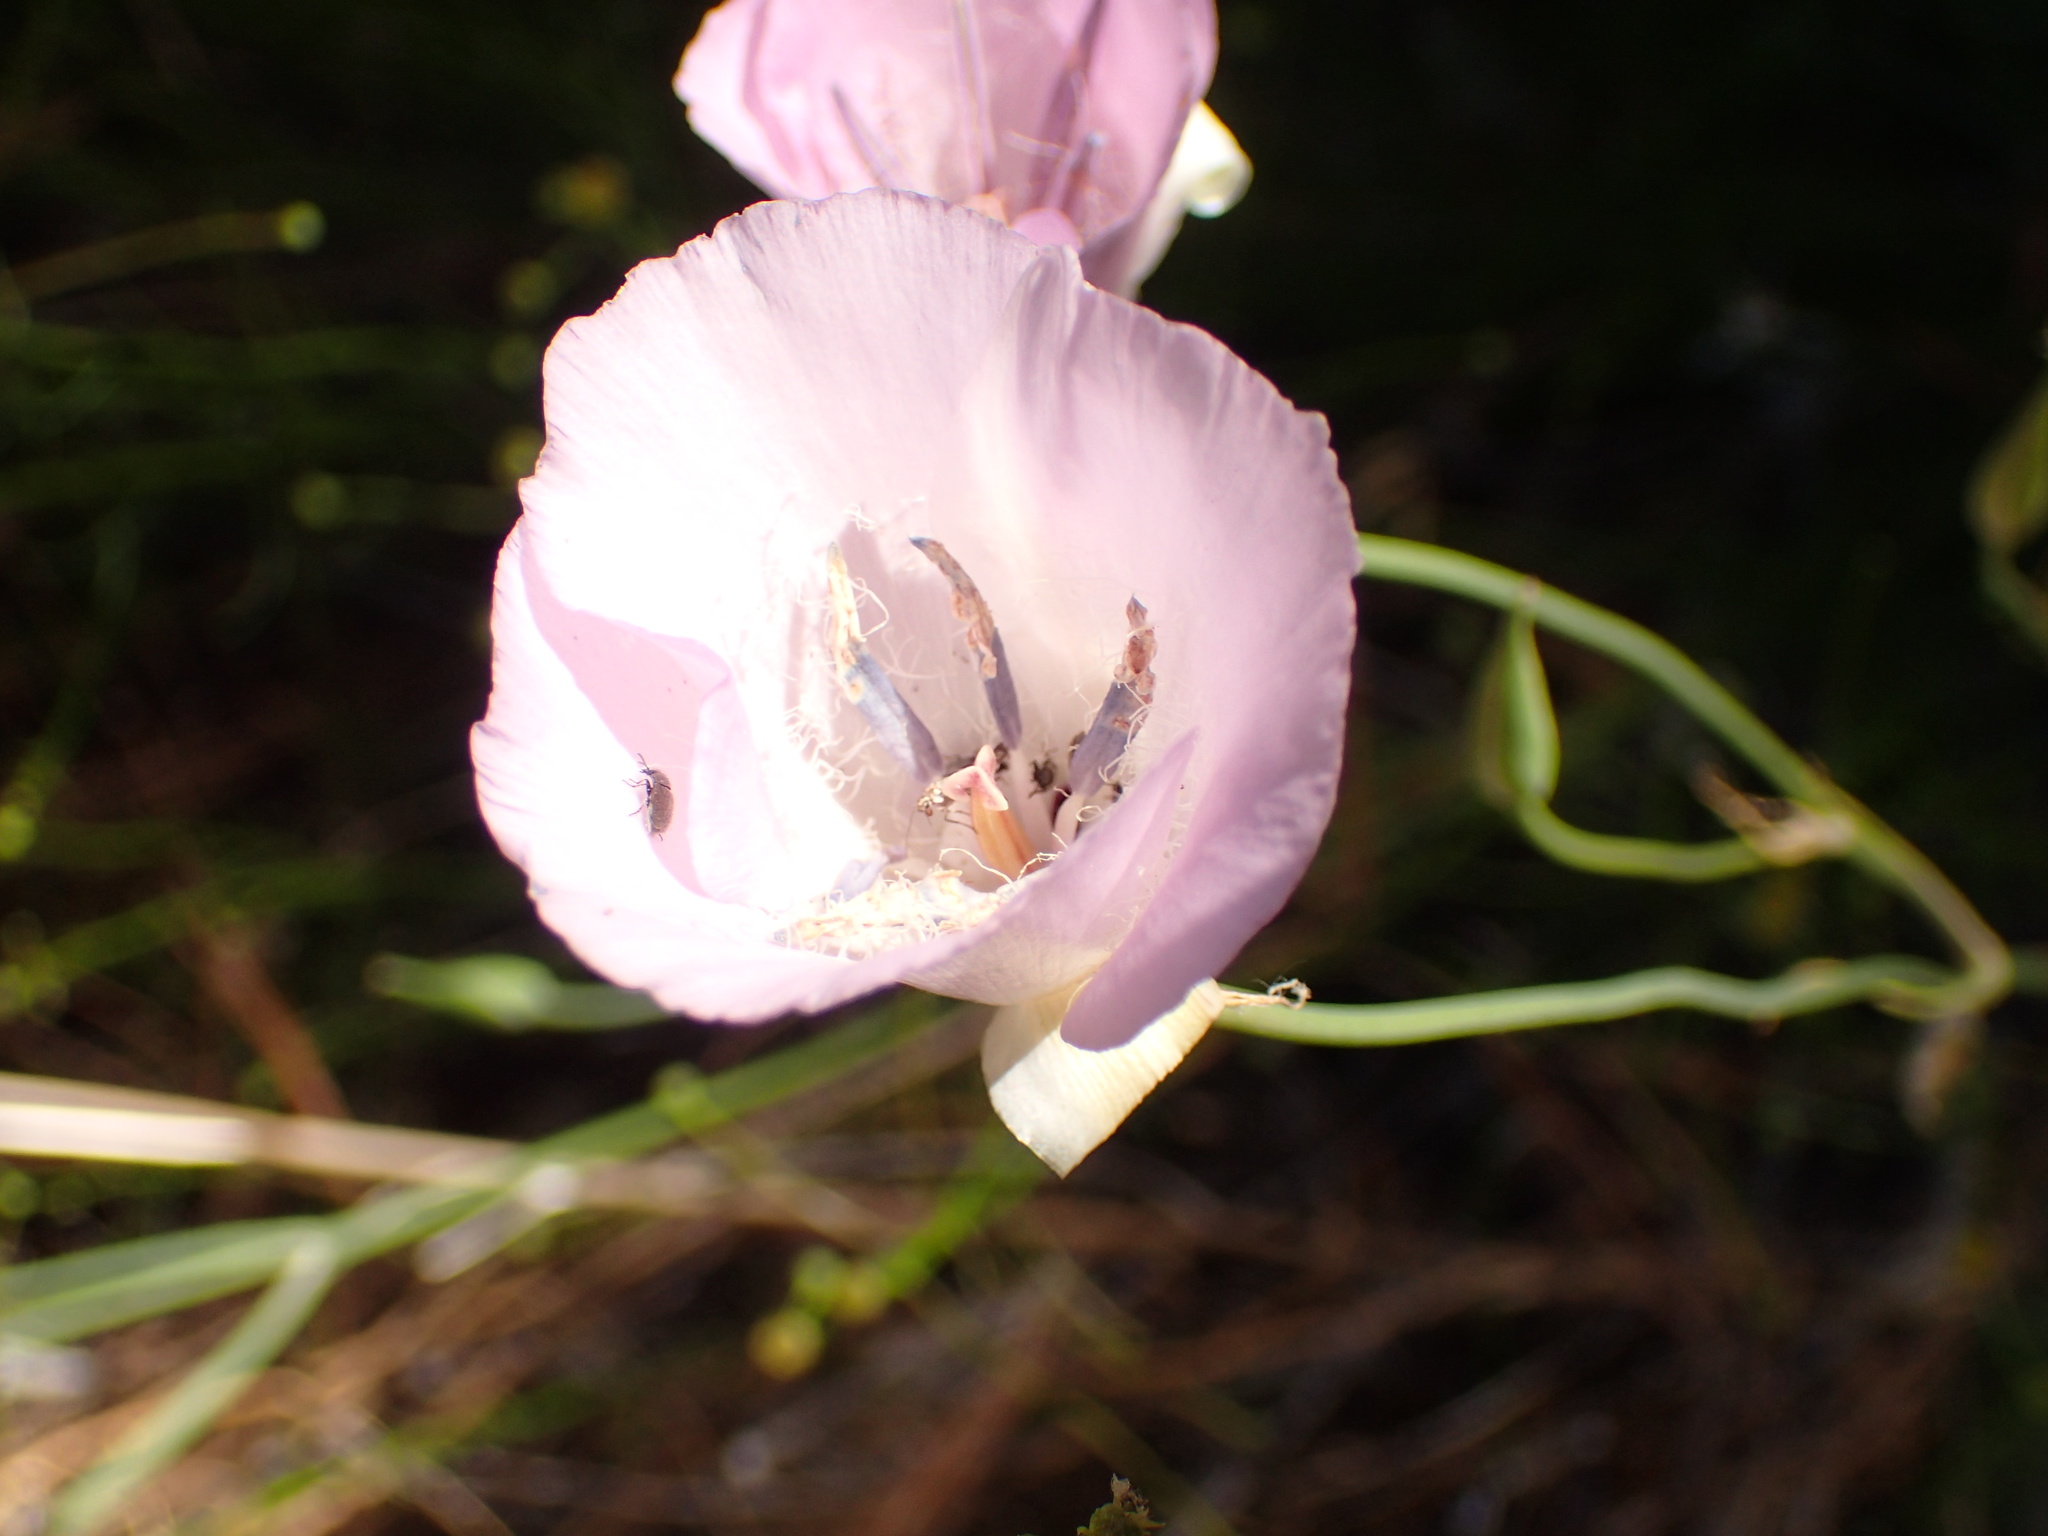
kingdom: Plantae
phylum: Tracheophyta
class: Liliopsida
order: Liliales
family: Liliaceae
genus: Calochortus
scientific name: Calochortus splendens
